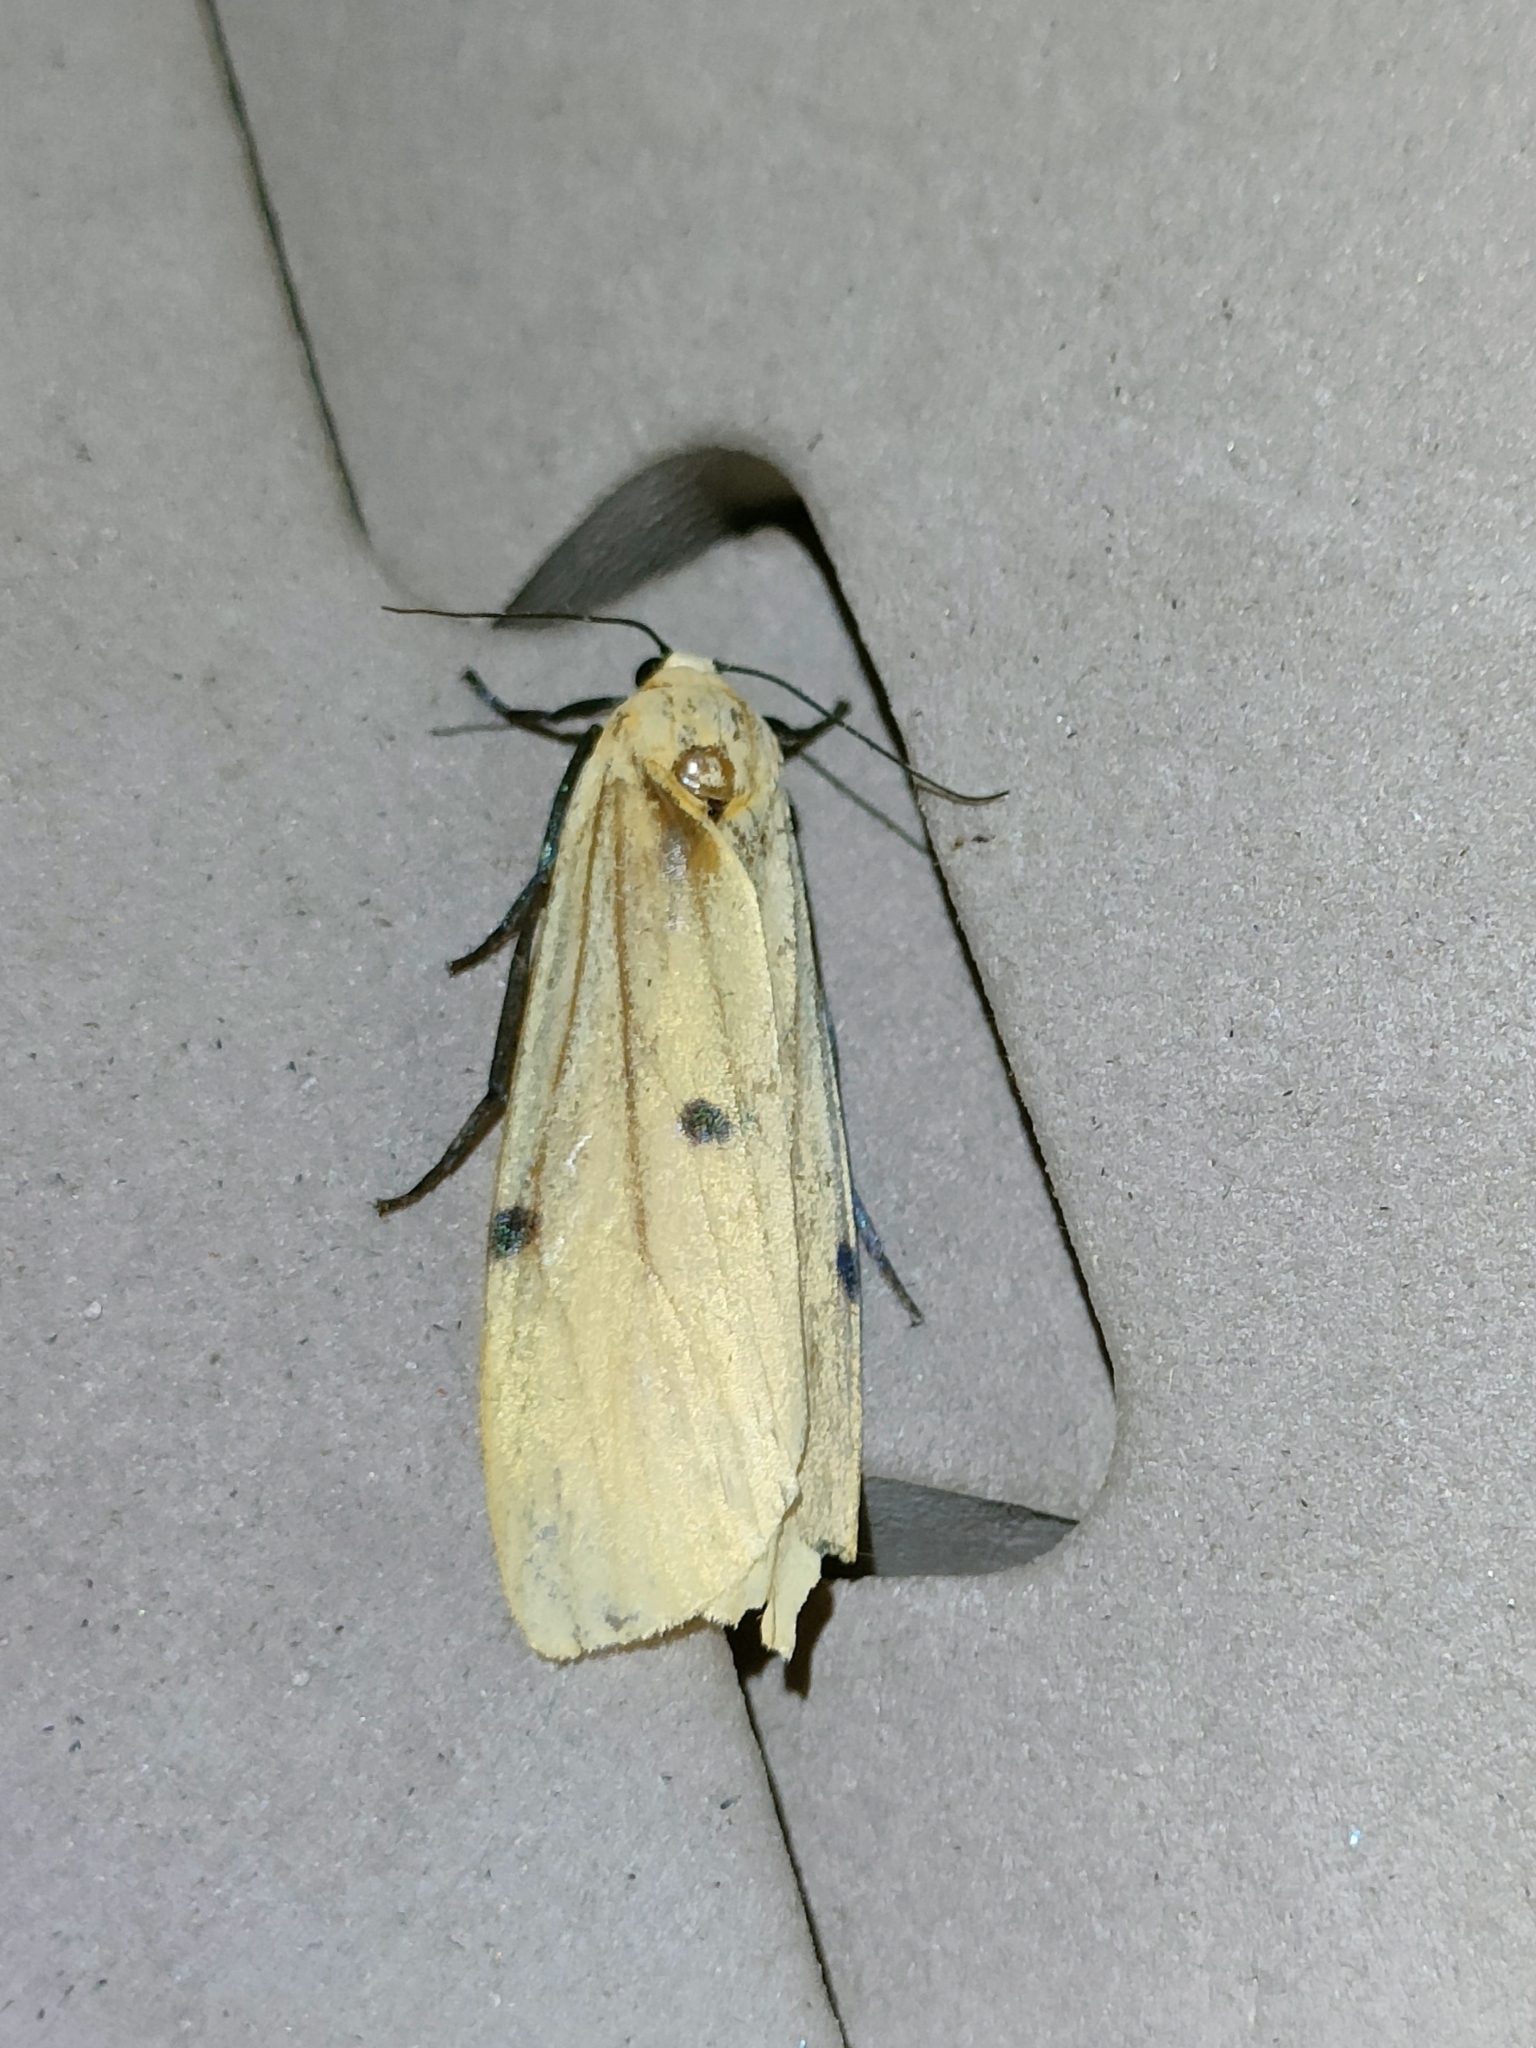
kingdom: Animalia
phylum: Arthropoda
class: Insecta
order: Lepidoptera
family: Erebidae
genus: Lithosia
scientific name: Lithosia quadra
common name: Four-spotted footman
